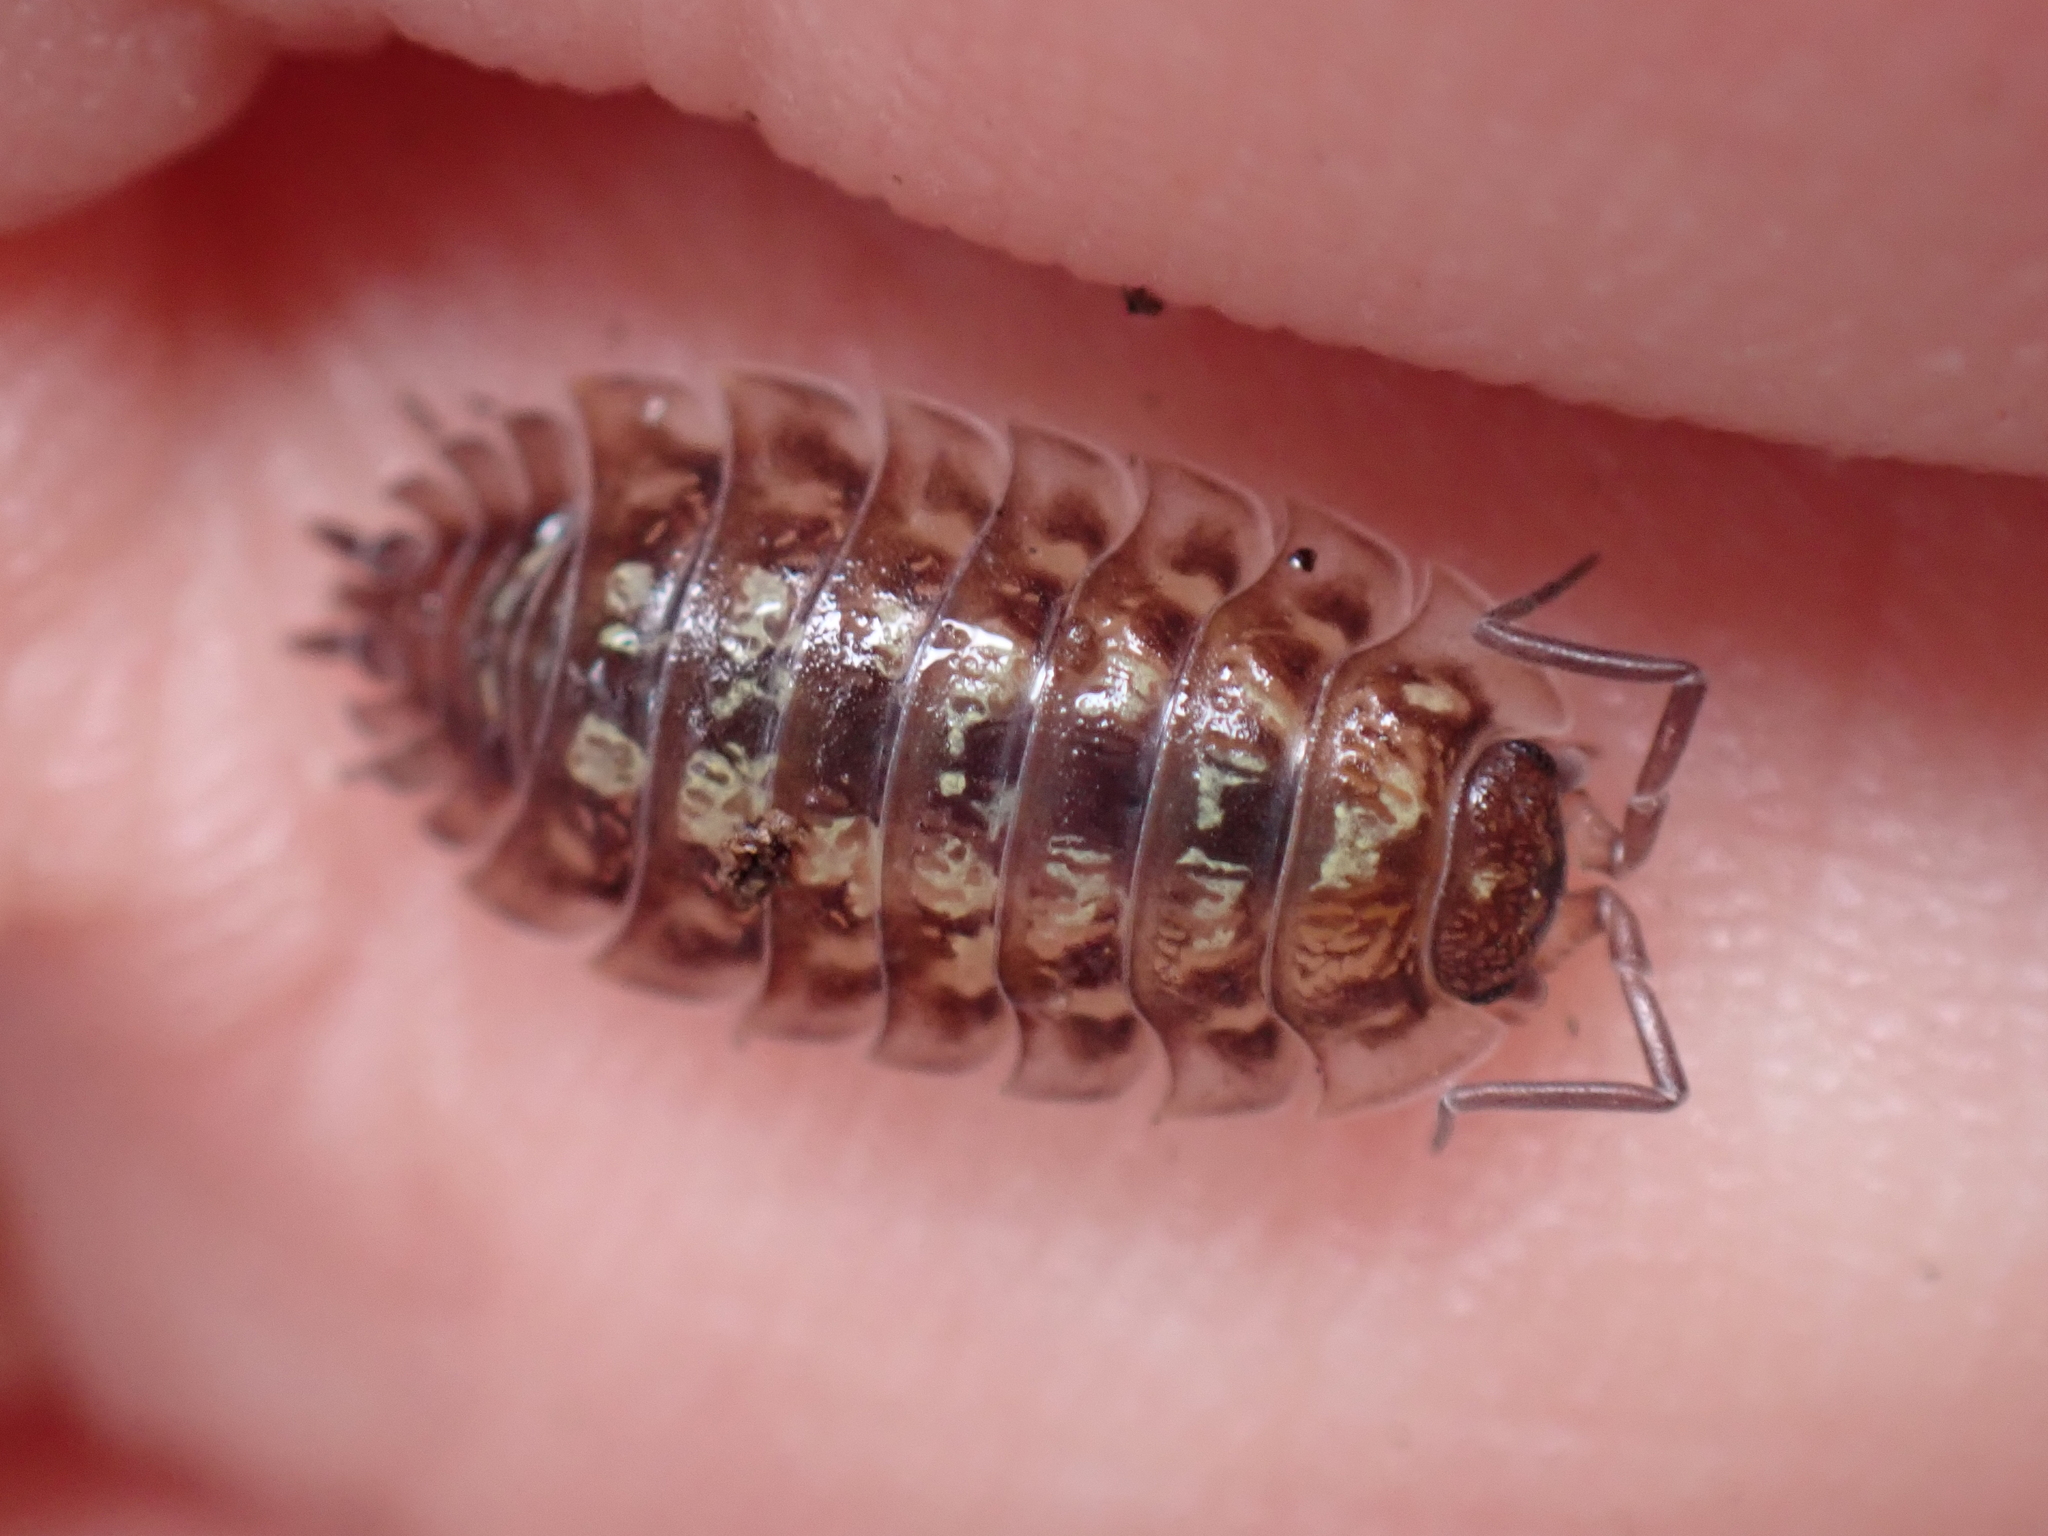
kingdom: Animalia
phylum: Arthropoda
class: Malacostraca
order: Isopoda
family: Oniscidae
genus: Oniscus
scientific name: Oniscus asellus
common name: Common shiny woodlouse
